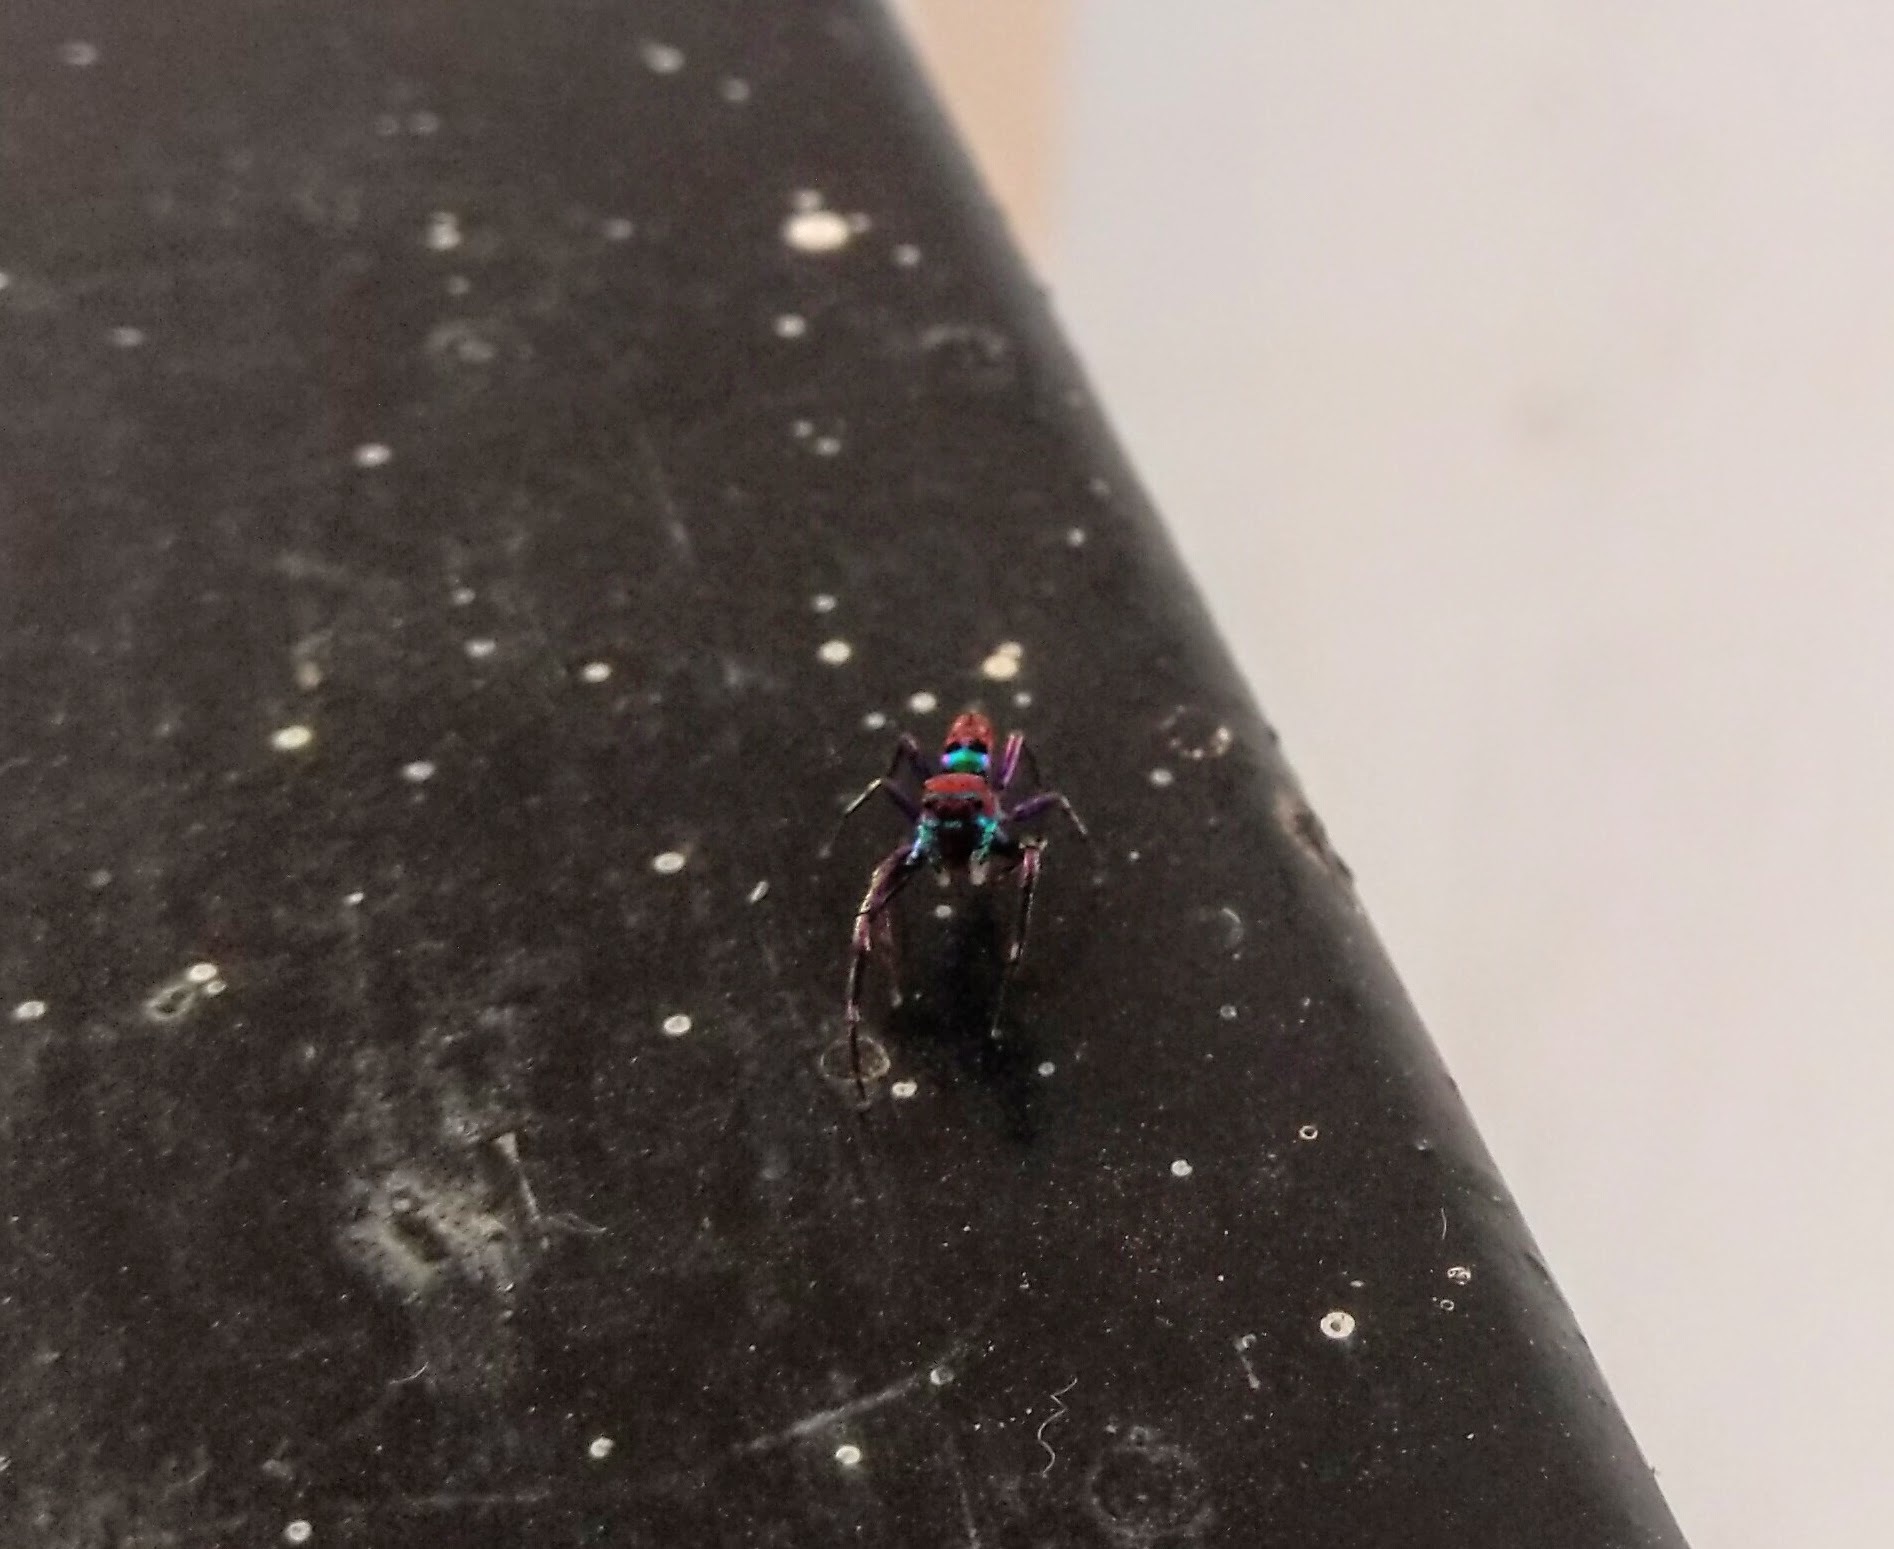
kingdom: Animalia
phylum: Arthropoda
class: Arachnida
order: Araneae
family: Salticidae
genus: Chrysilla
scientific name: Chrysilla volupe
